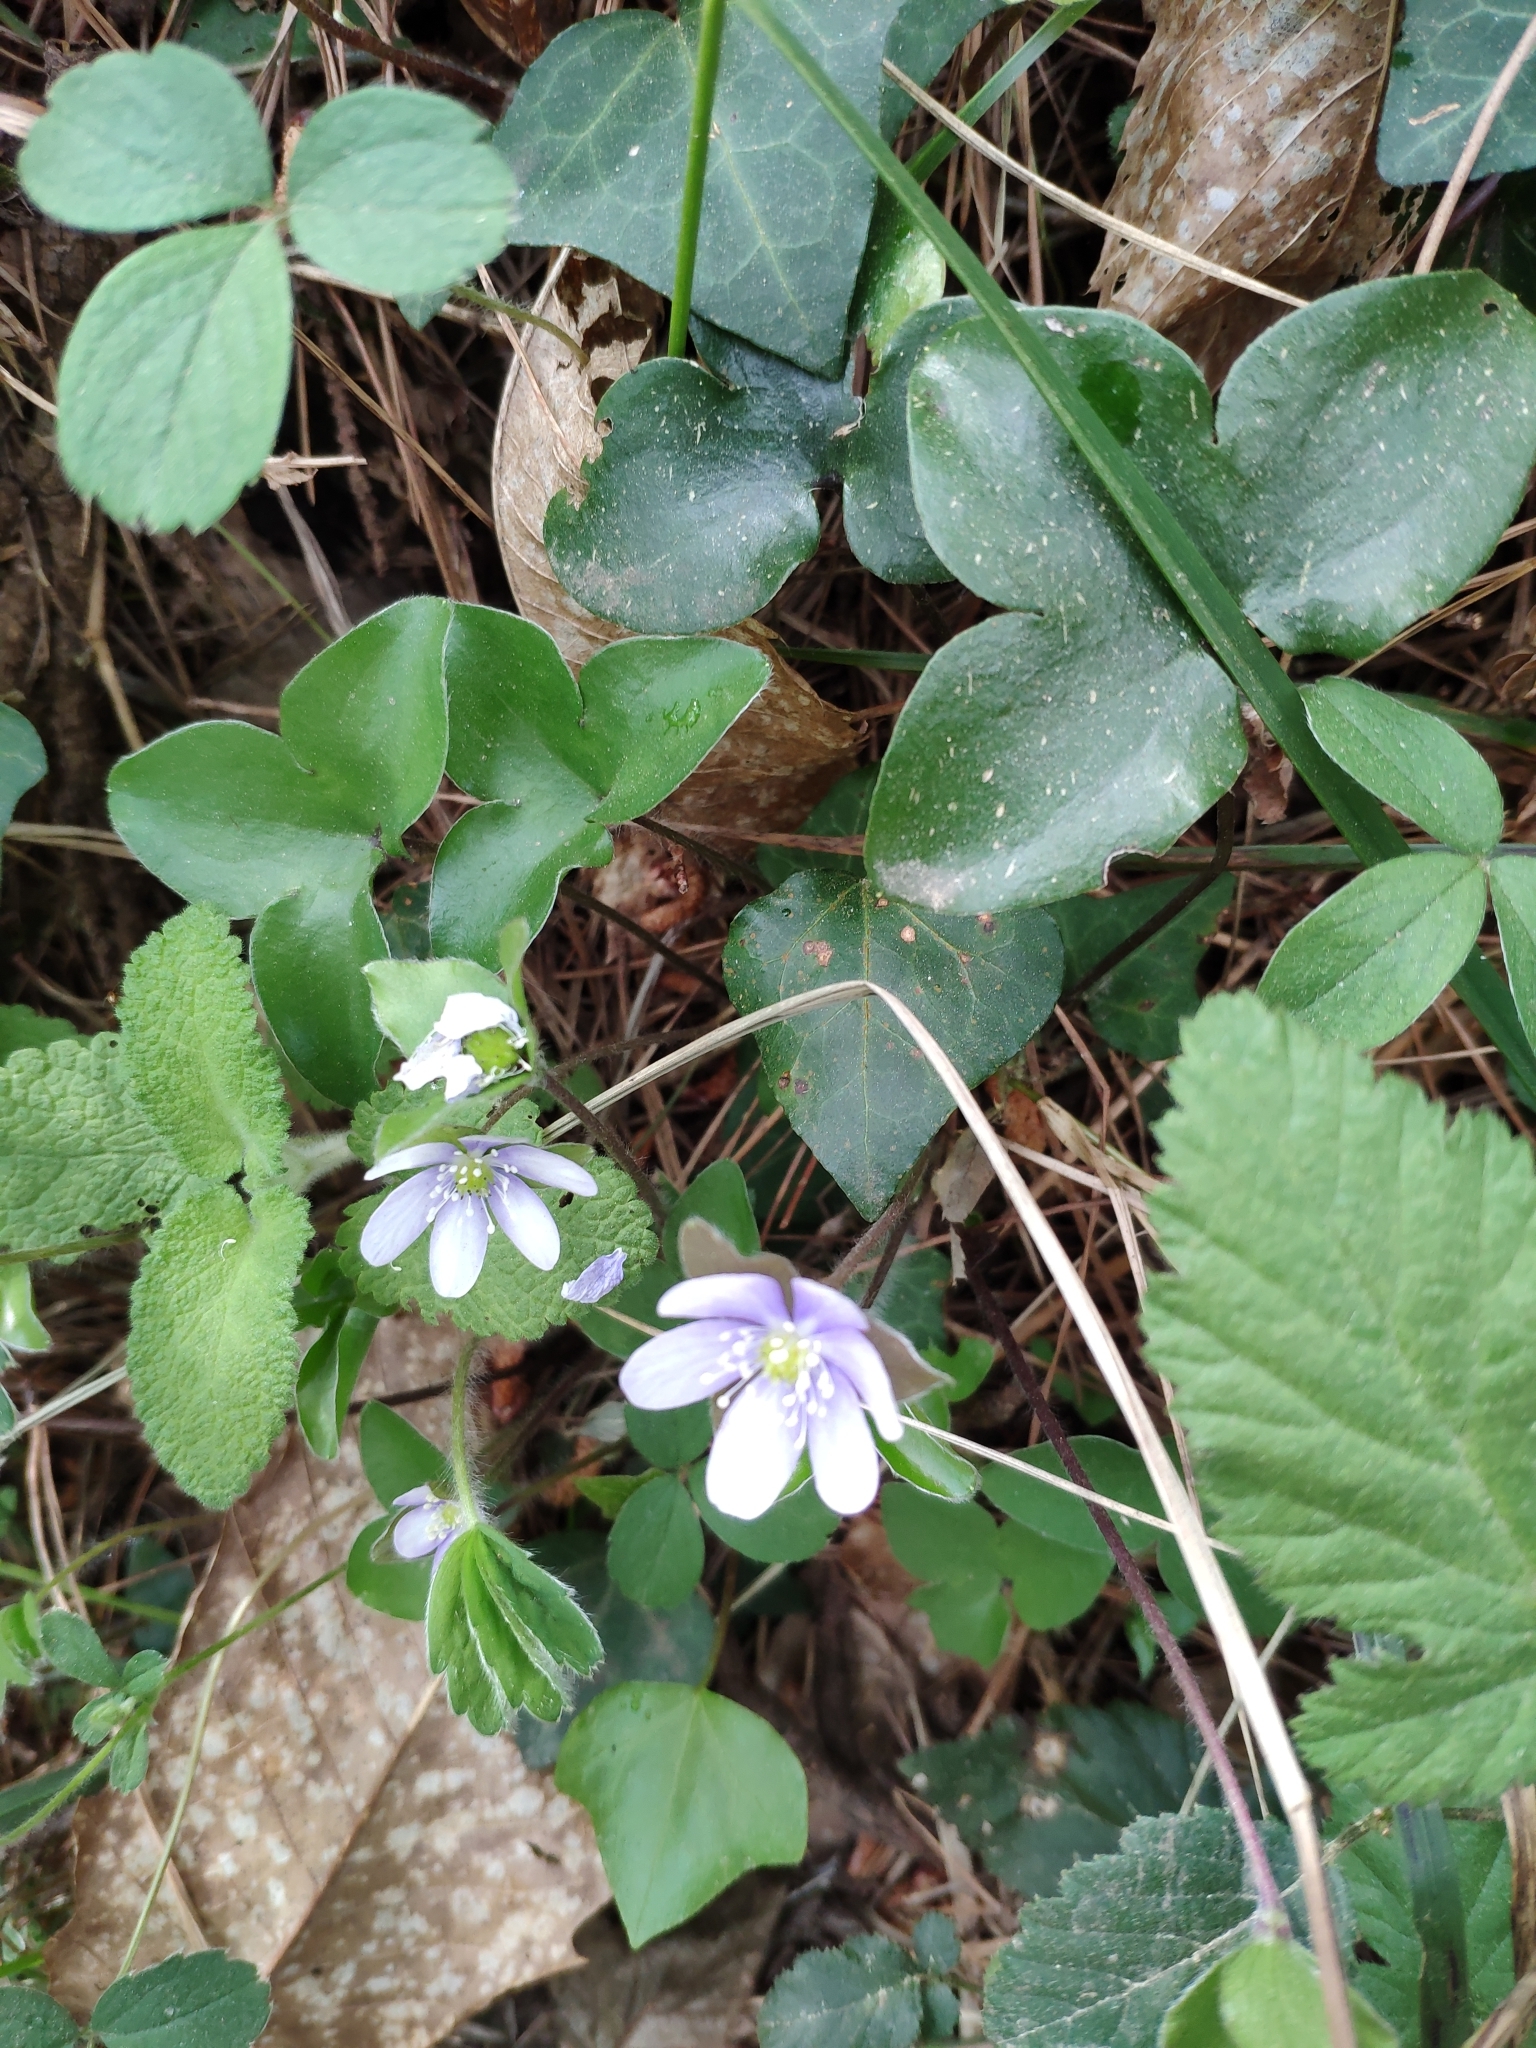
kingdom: Plantae
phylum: Tracheophyta
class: Magnoliopsida
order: Ranunculales
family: Ranunculaceae
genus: Hepatica
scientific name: Hepatica nobilis
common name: Liverleaf
